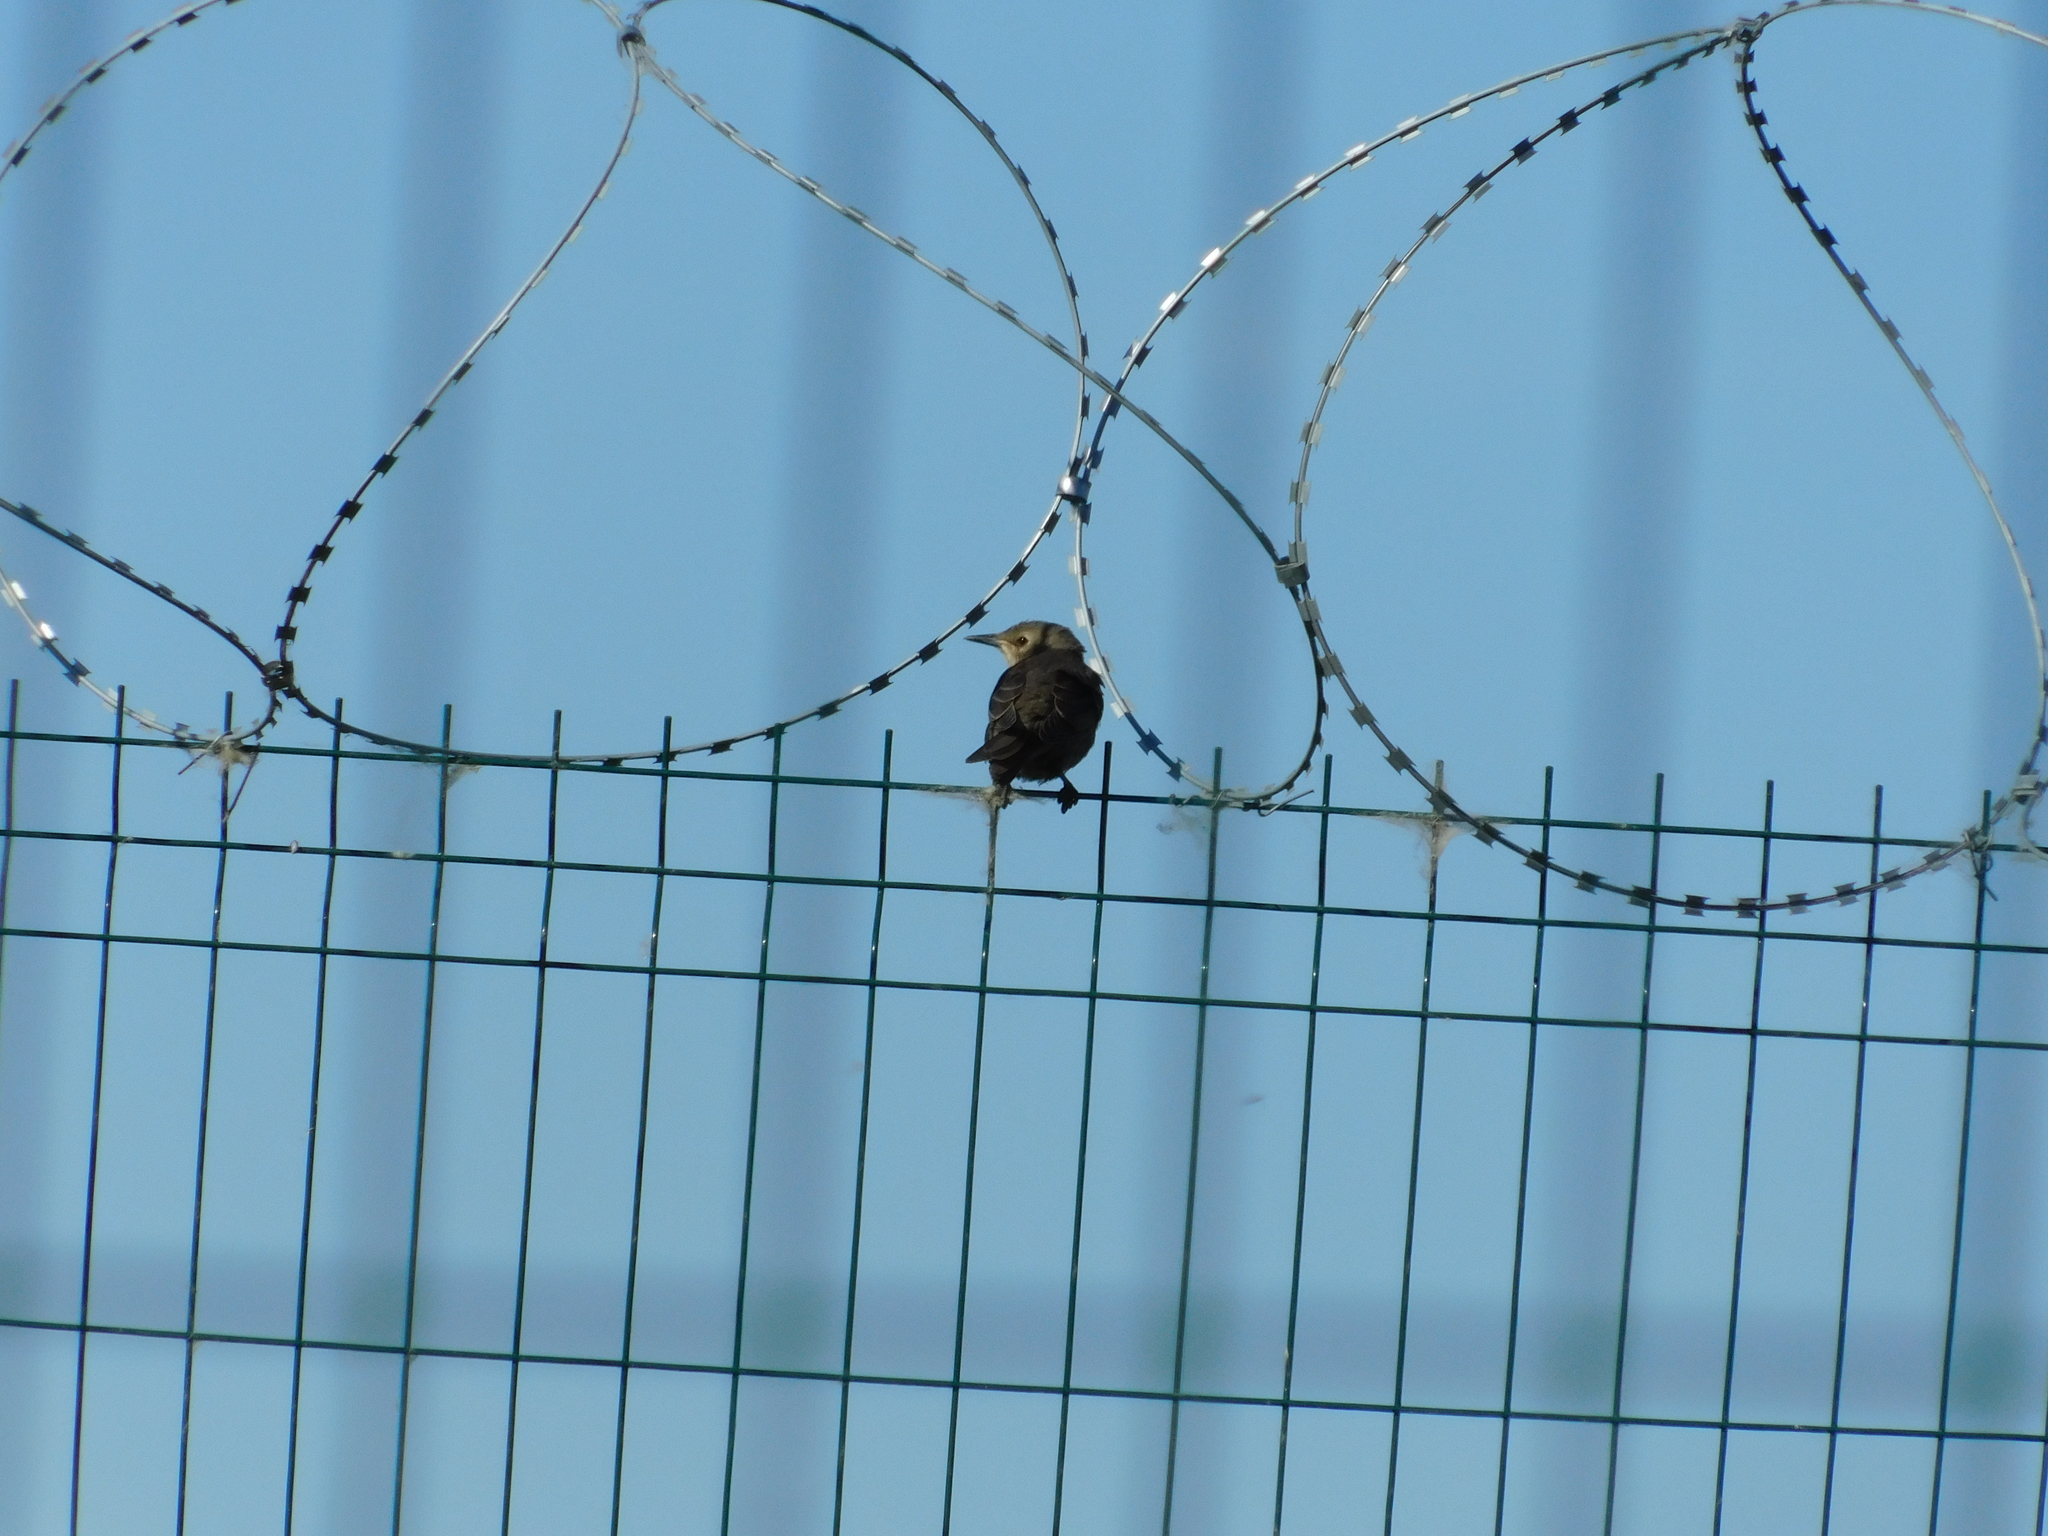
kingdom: Animalia
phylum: Chordata
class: Aves
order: Passeriformes
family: Sturnidae
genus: Sturnus
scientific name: Sturnus vulgaris
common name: Common starling
